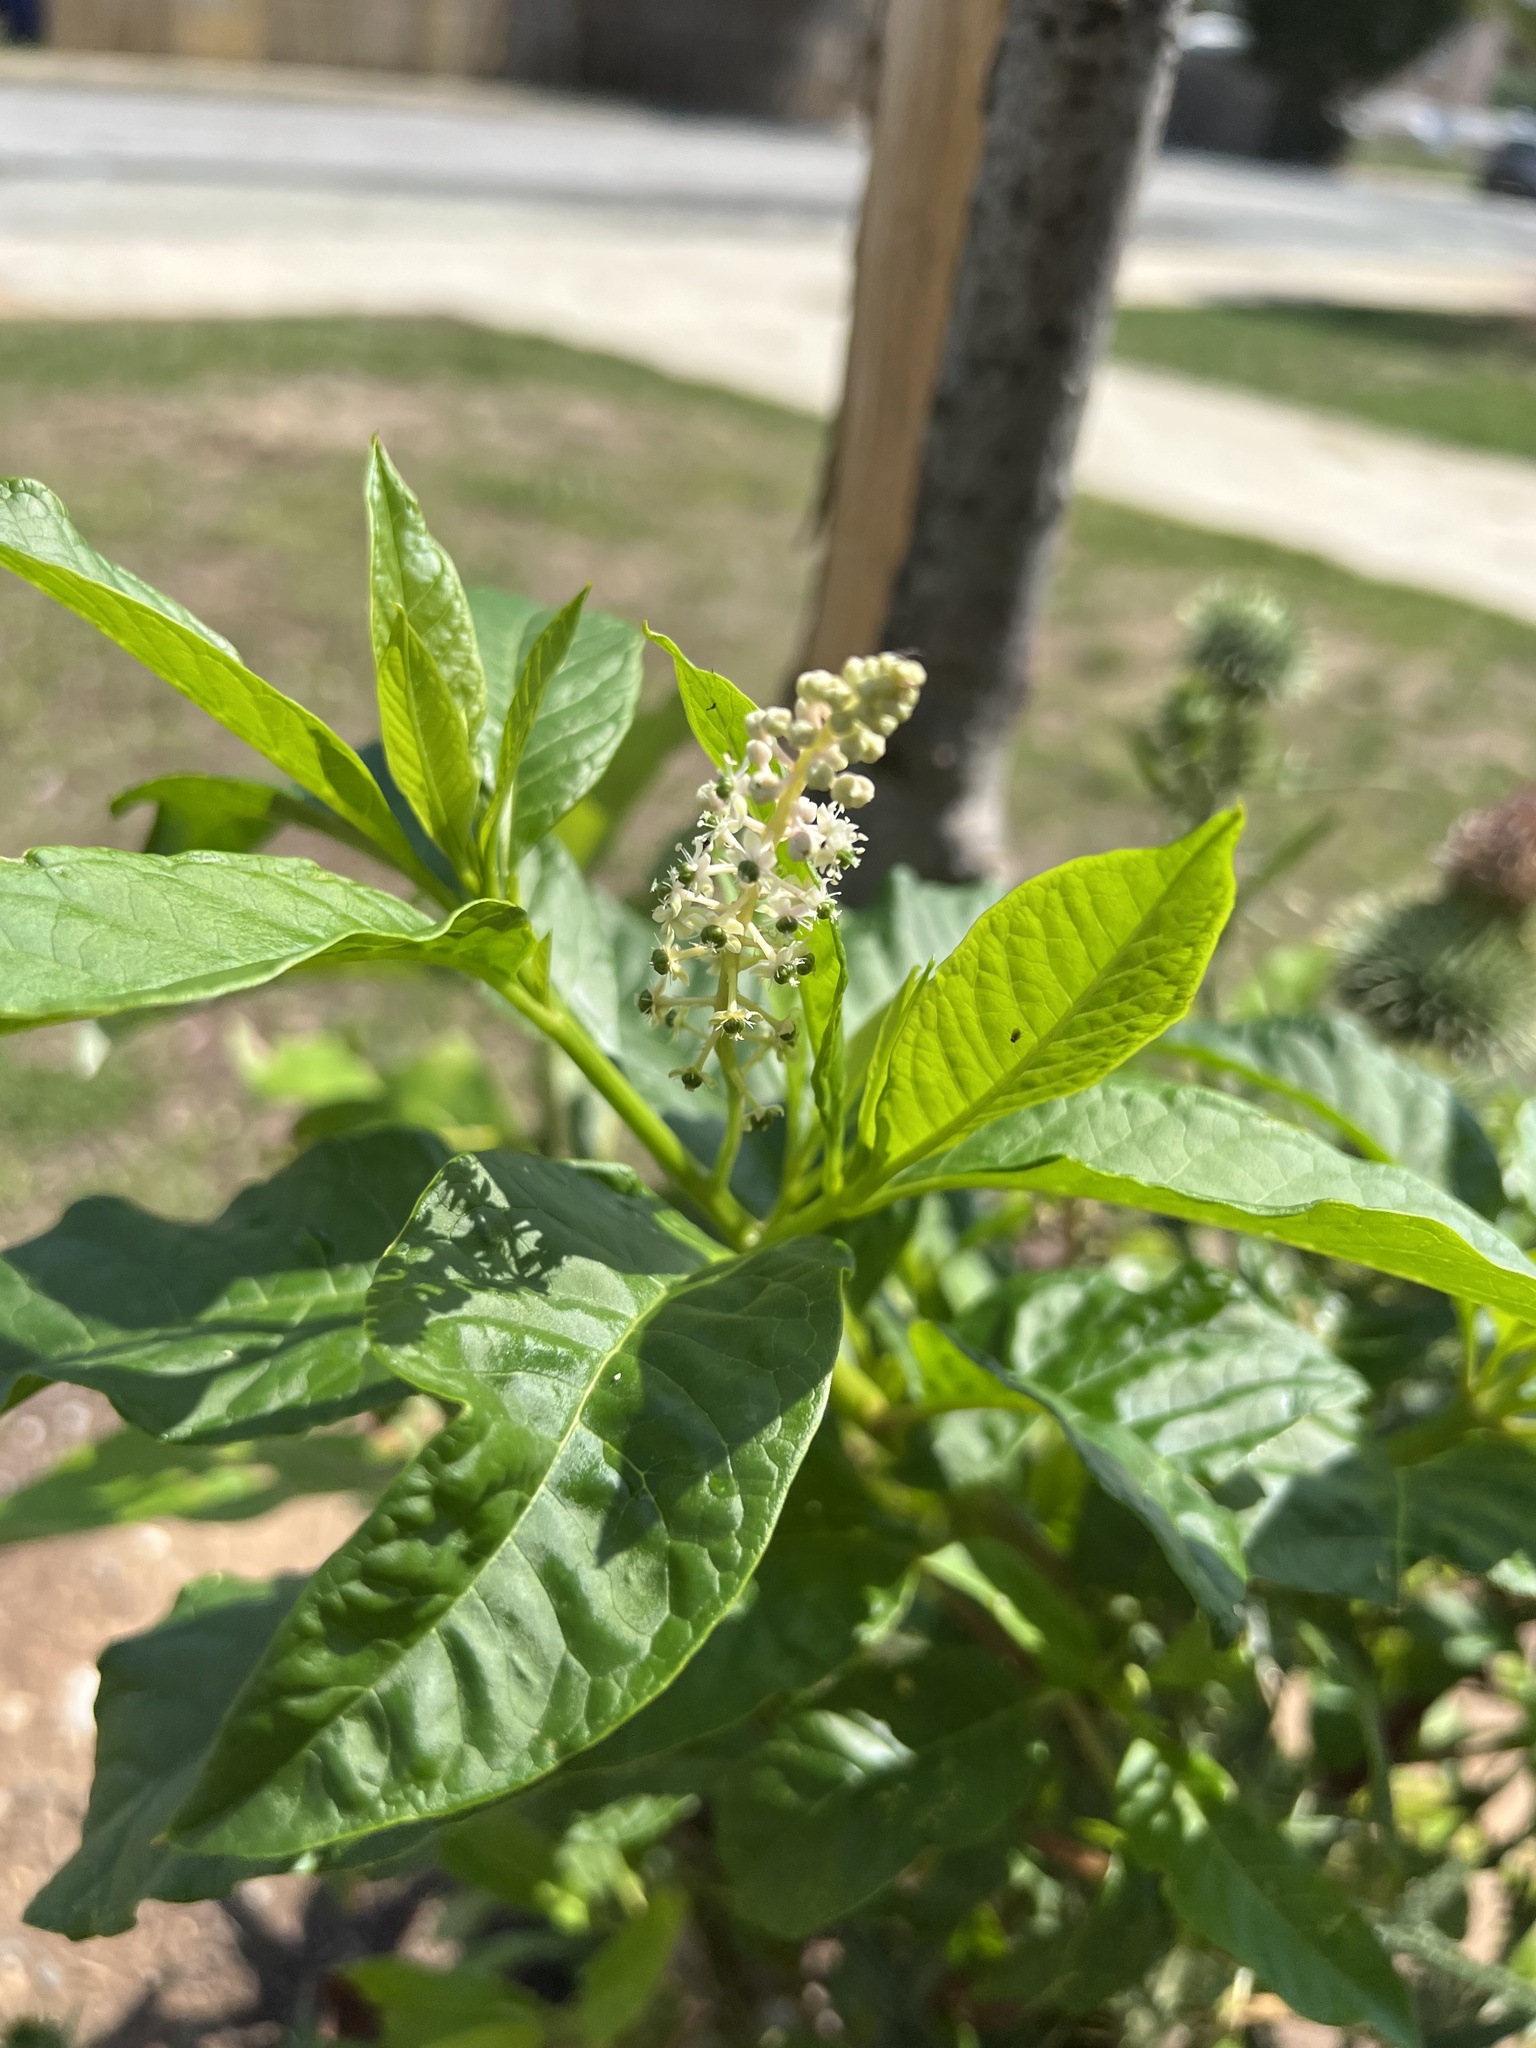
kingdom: Plantae
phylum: Tracheophyta
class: Magnoliopsida
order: Caryophyllales
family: Phytolaccaceae
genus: Phytolacca
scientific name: Phytolacca americana
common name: American pokeweed
